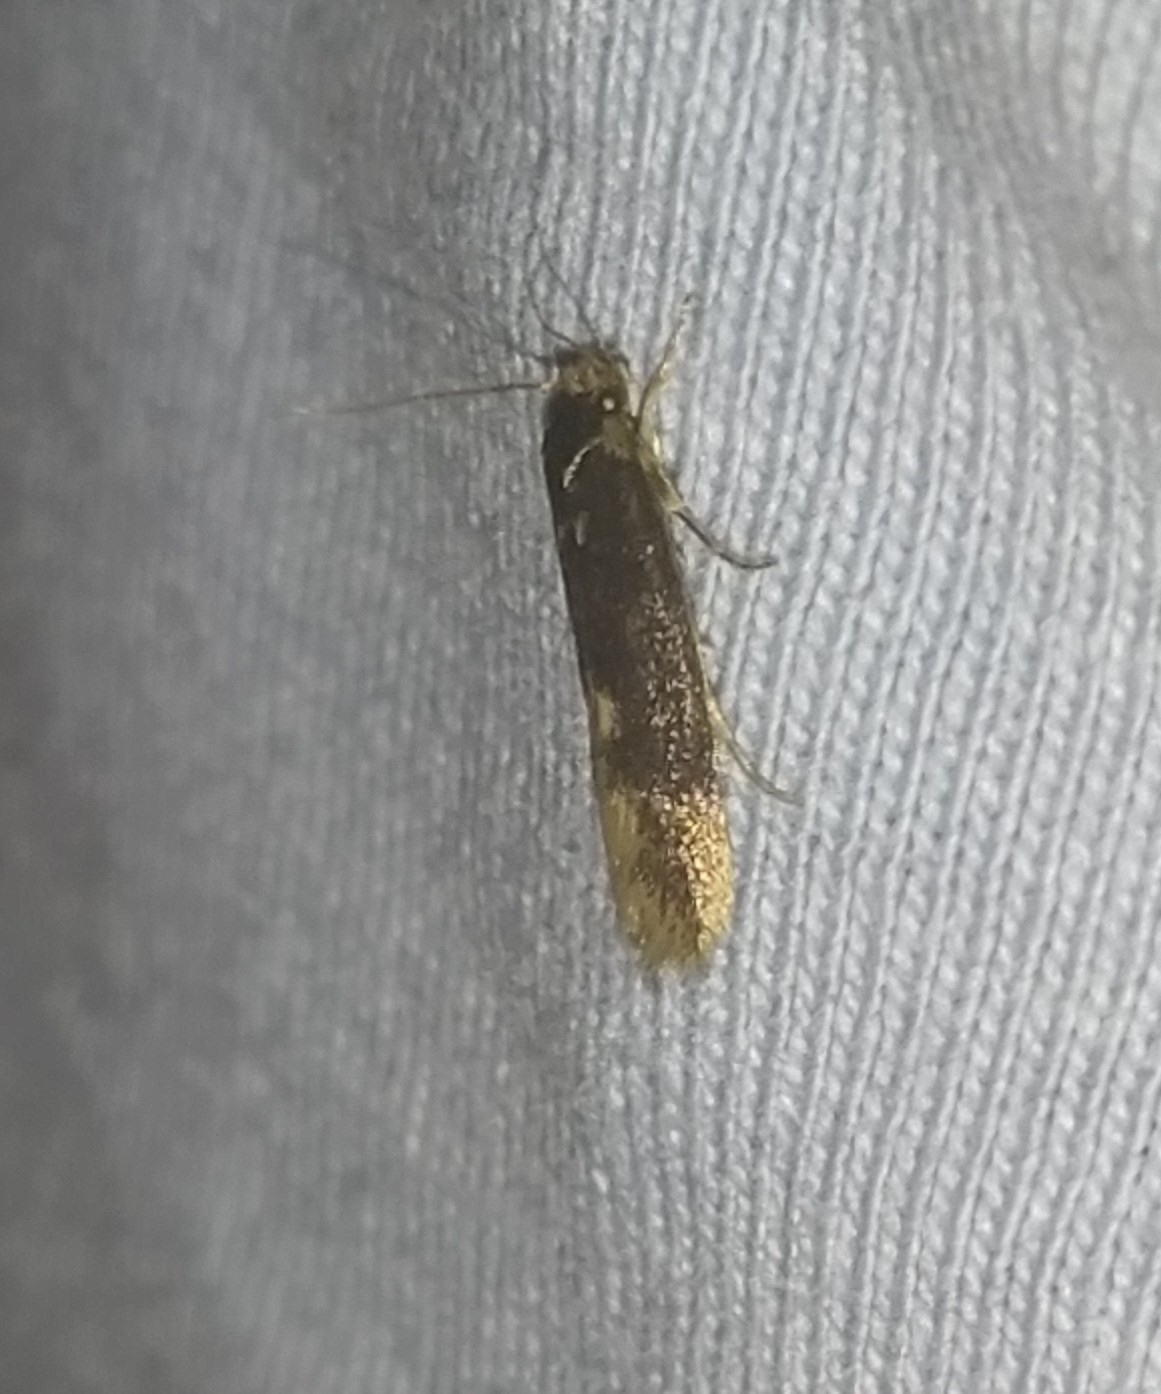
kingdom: Animalia
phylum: Arthropoda
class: Insecta
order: Lepidoptera
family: Tineidae
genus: Opogona
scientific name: Opogona omoscopa
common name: Moth
